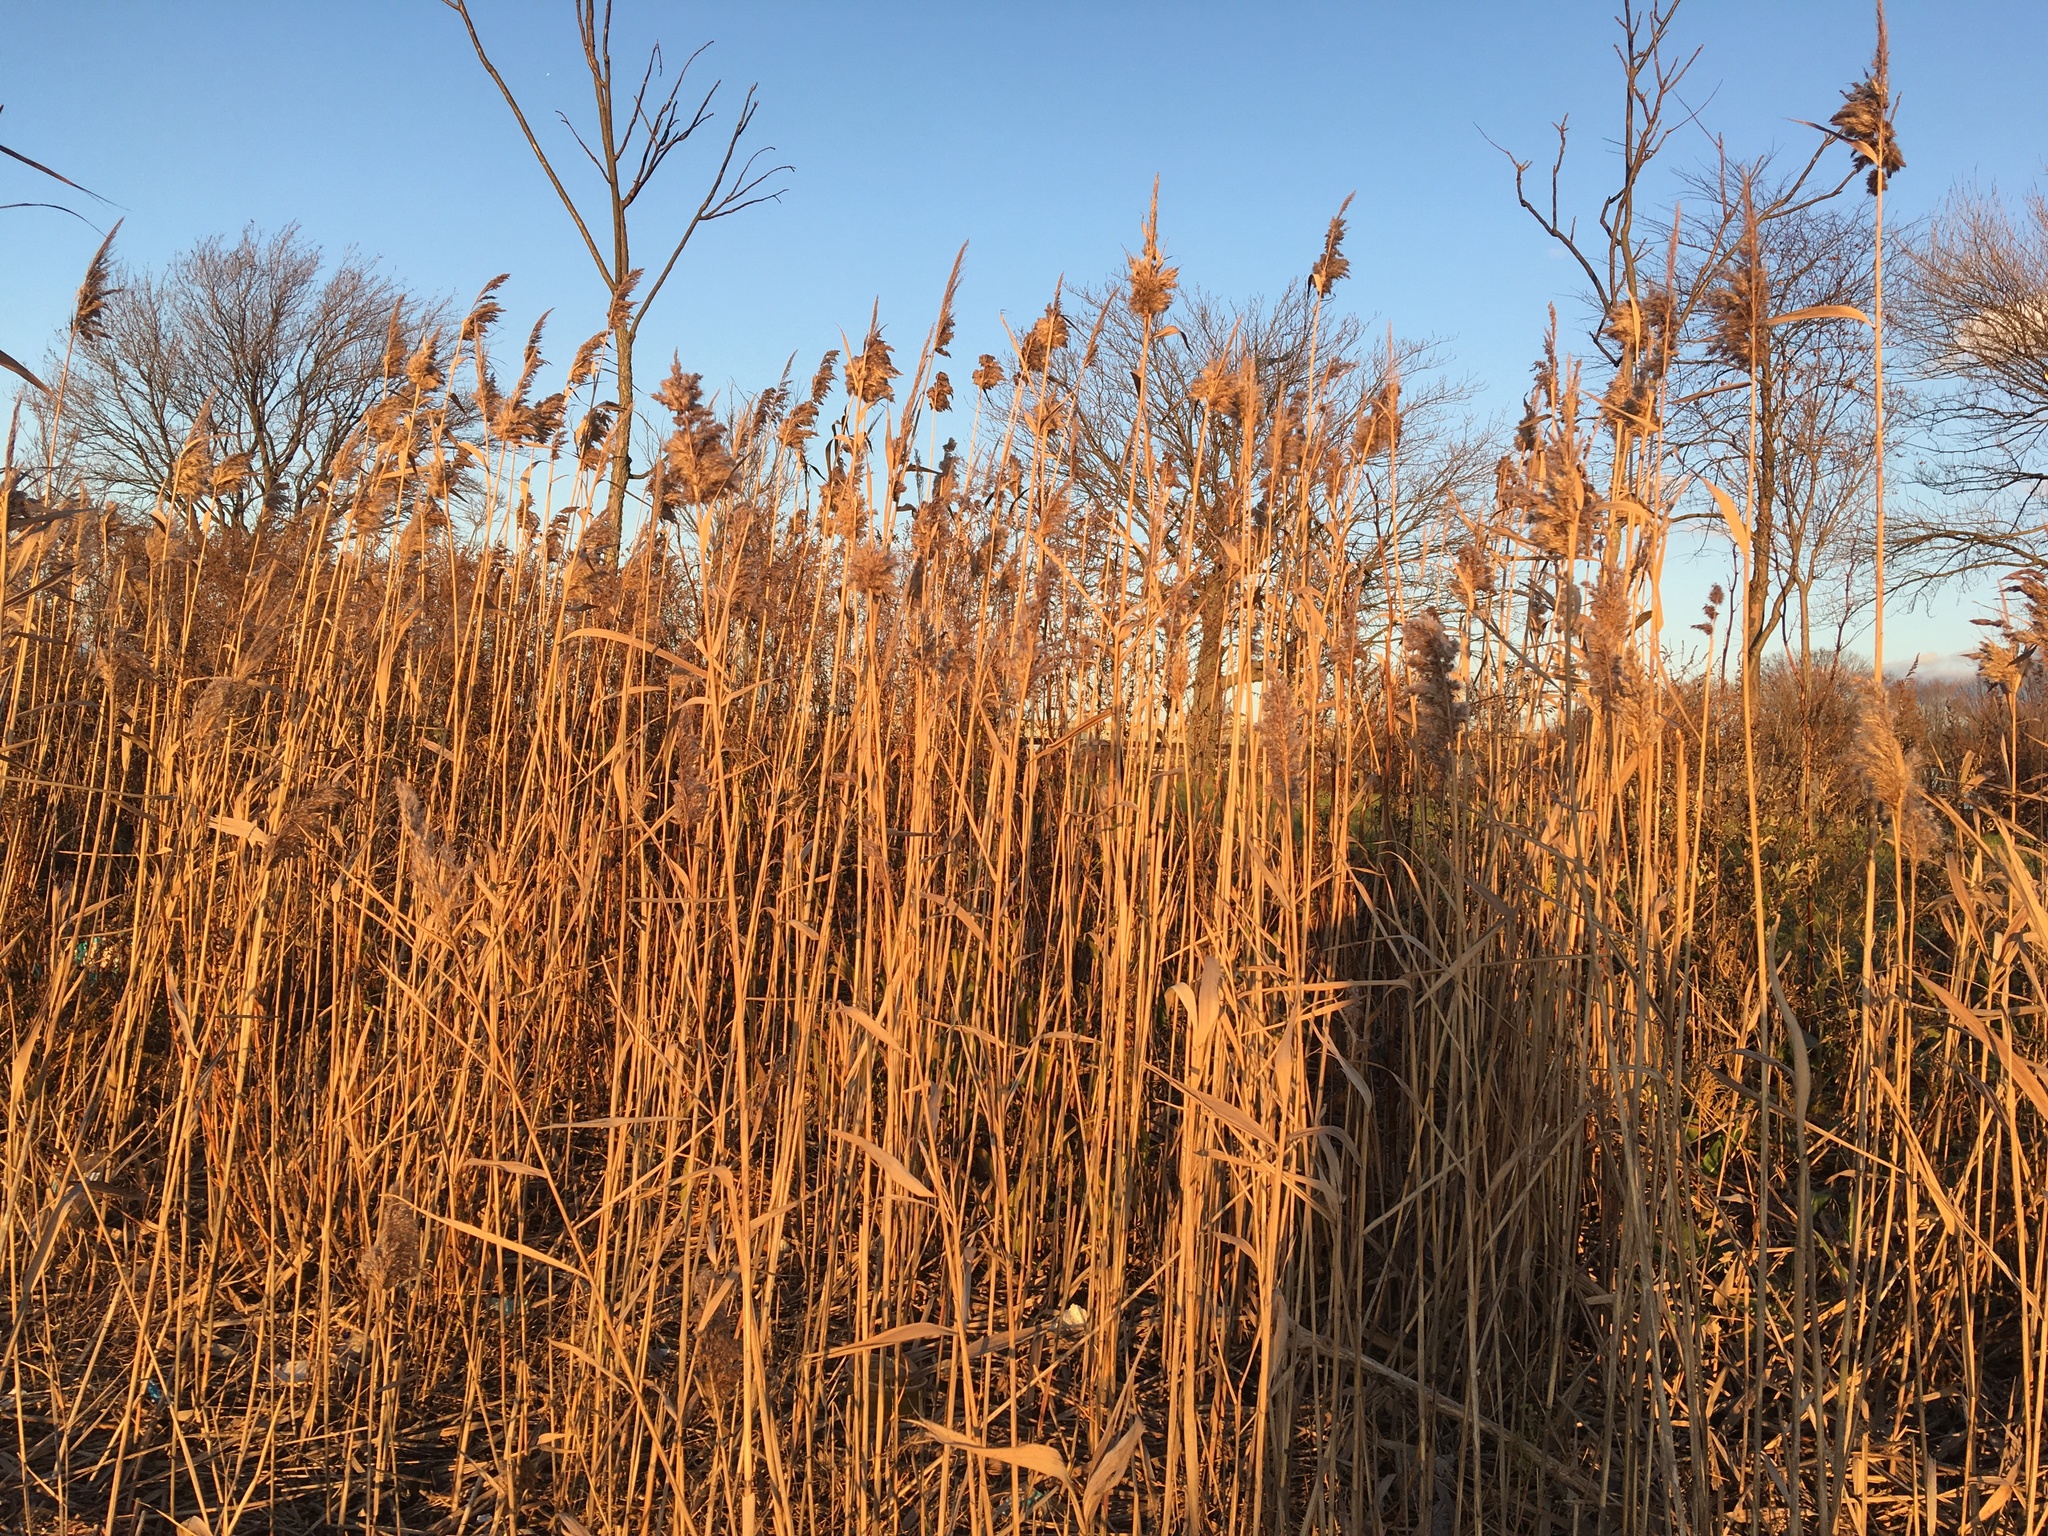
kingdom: Plantae
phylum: Tracheophyta
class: Liliopsida
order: Poales
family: Poaceae
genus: Phragmites
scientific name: Phragmites australis
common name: Common reed
